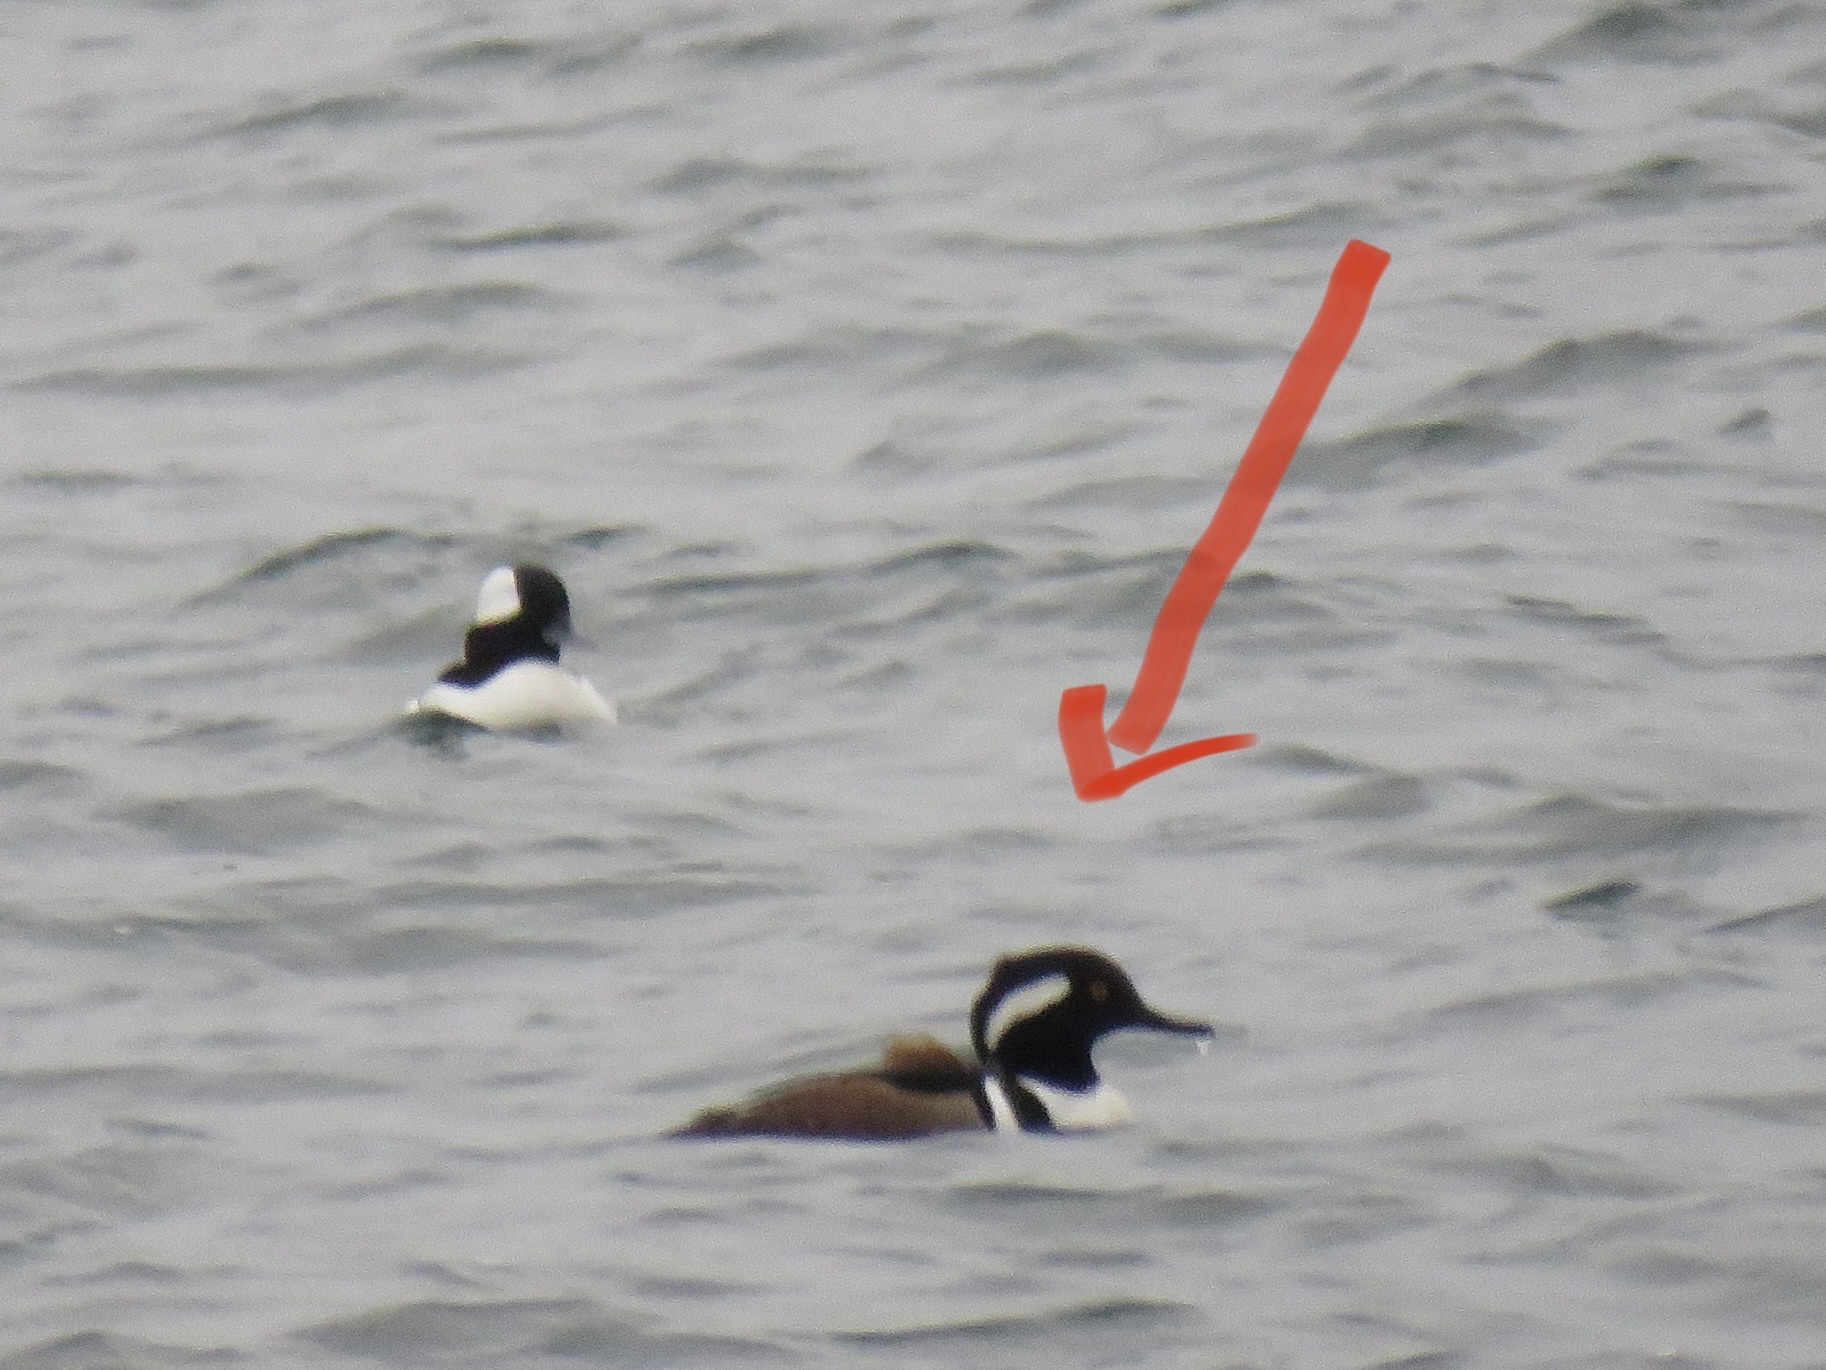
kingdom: Animalia
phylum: Chordata
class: Aves
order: Anseriformes
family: Anatidae
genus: Lophodytes
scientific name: Lophodytes cucullatus
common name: Hooded merganser
